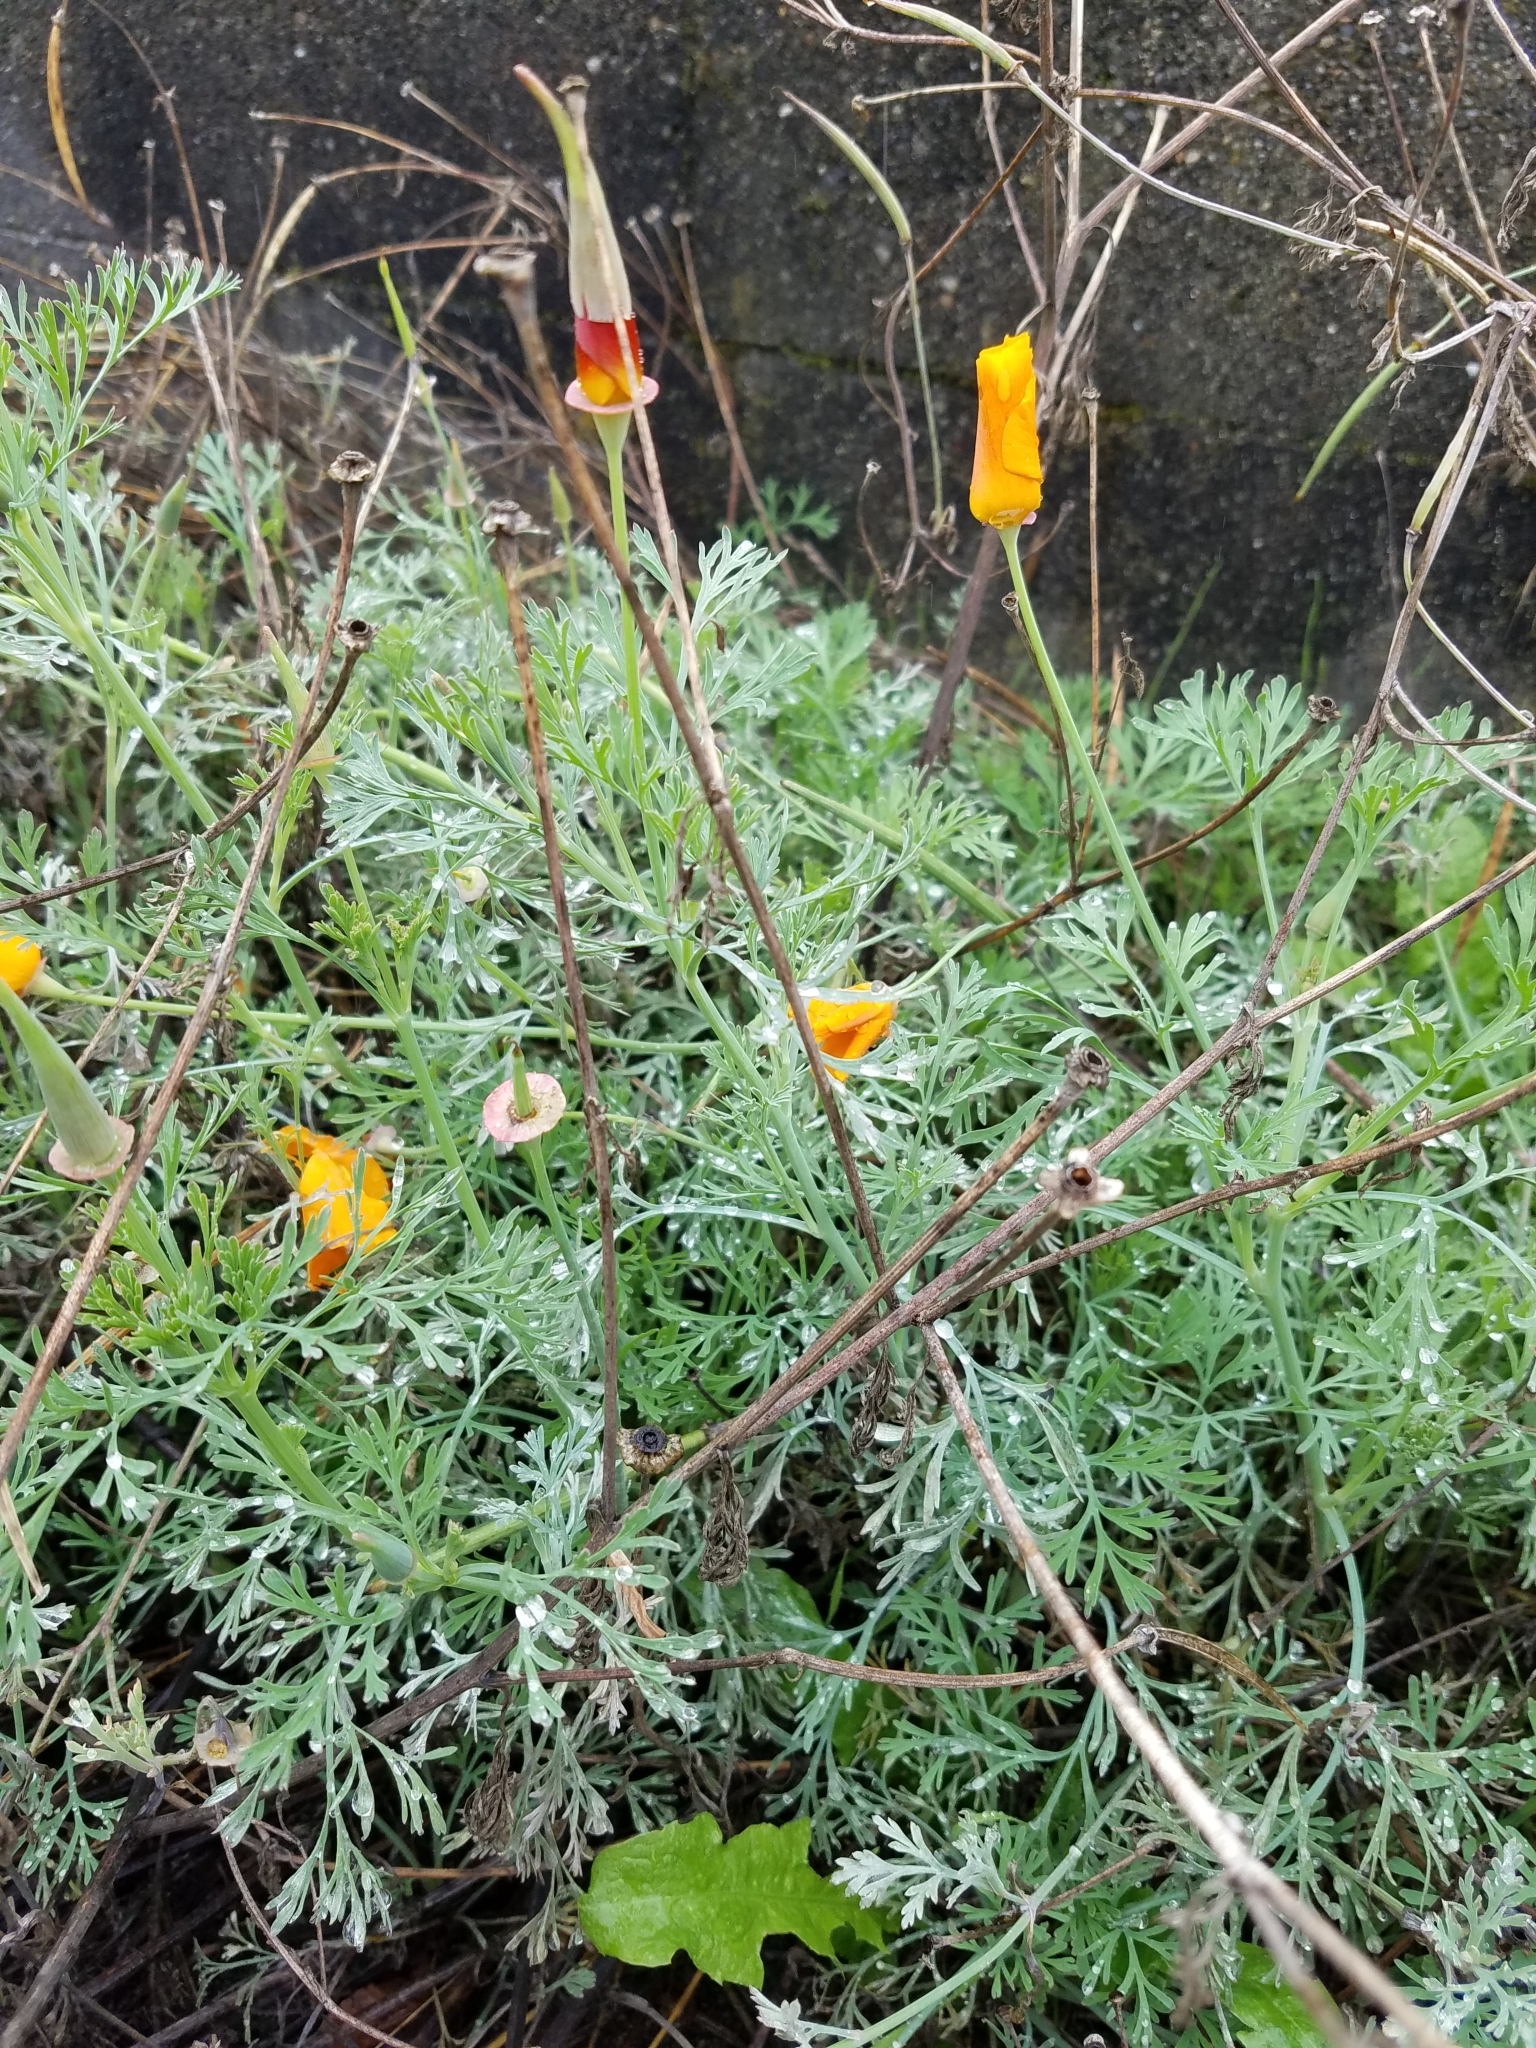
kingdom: Plantae
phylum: Tracheophyta
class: Magnoliopsida
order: Ranunculales
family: Papaveraceae
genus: Eschscholzia
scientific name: Eschscholzia californica
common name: California poppy
